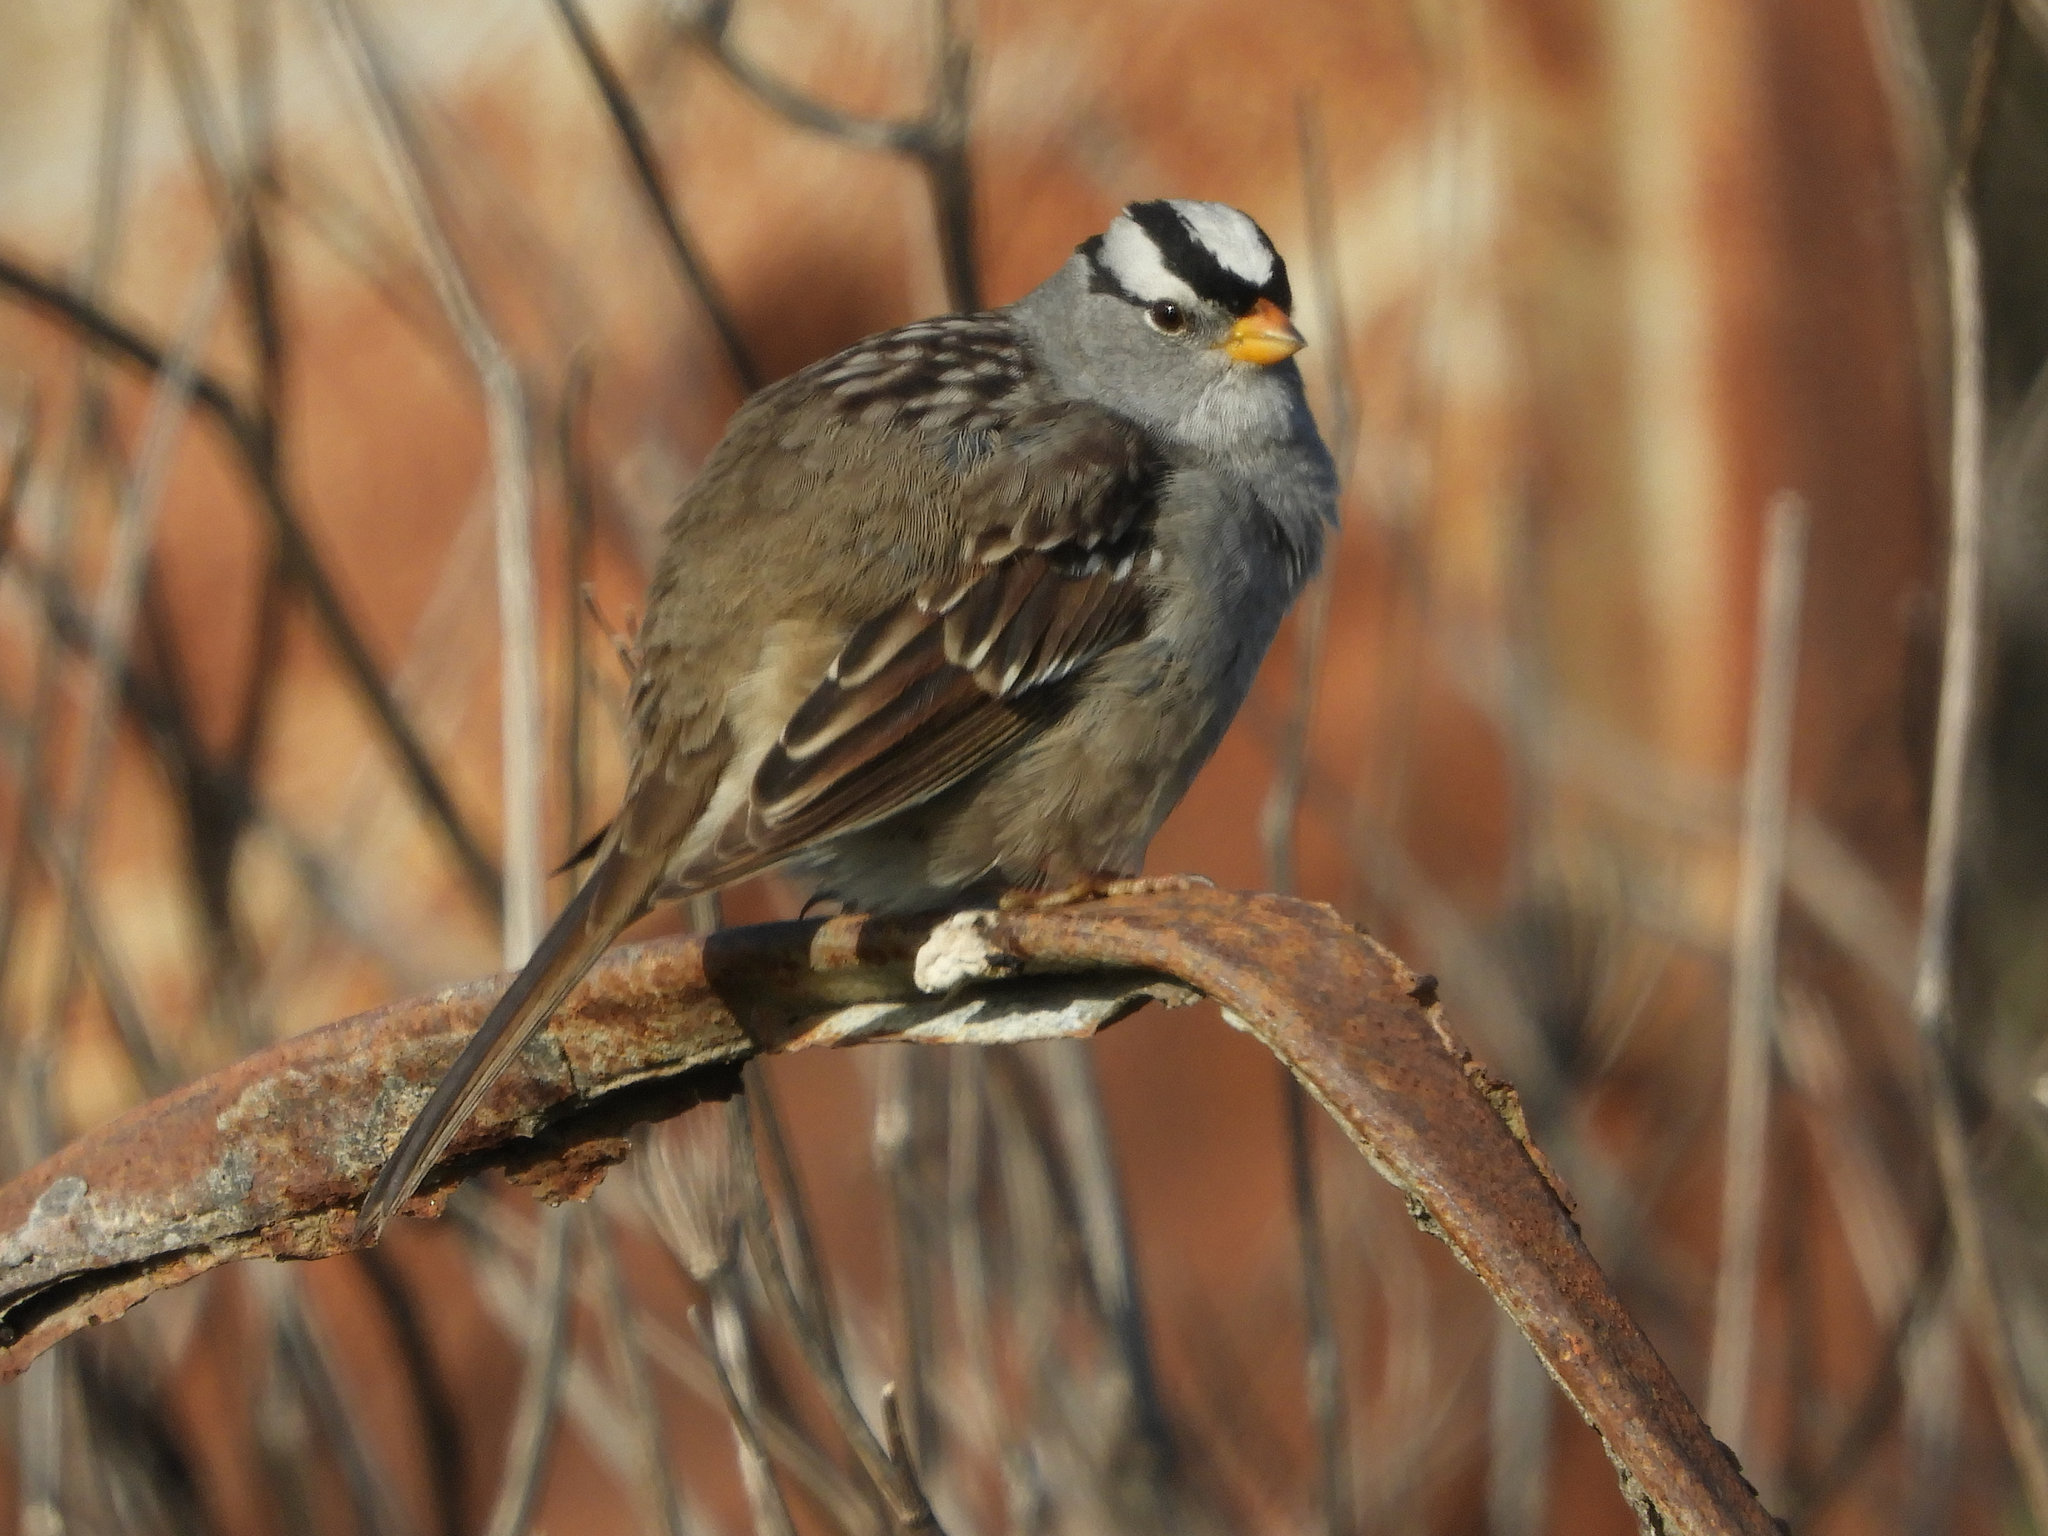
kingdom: Animalia
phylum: Chordata
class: Aves
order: Passeriformes
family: Passerellidae
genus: Zonotrichia
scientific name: Zonotrichia leucophrys
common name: White-crowned sparrow
